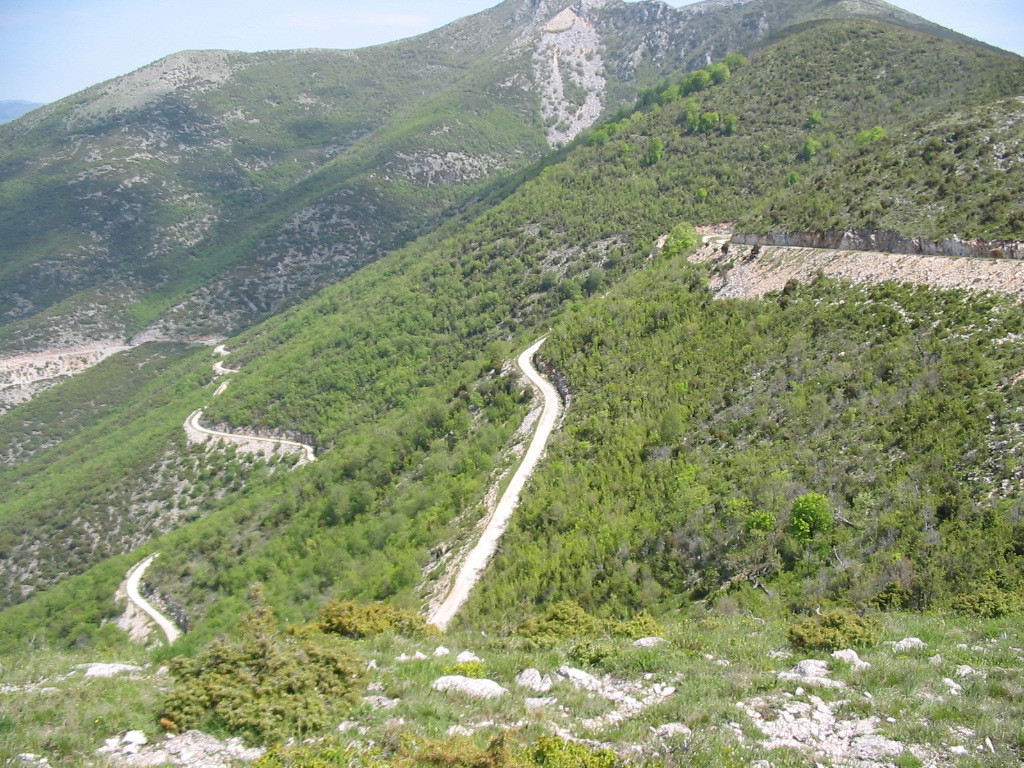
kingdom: Plantae
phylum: Tracheophyta
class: Pinopsida
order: Pinales
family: Pinaceae
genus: Pinus
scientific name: Pinus
